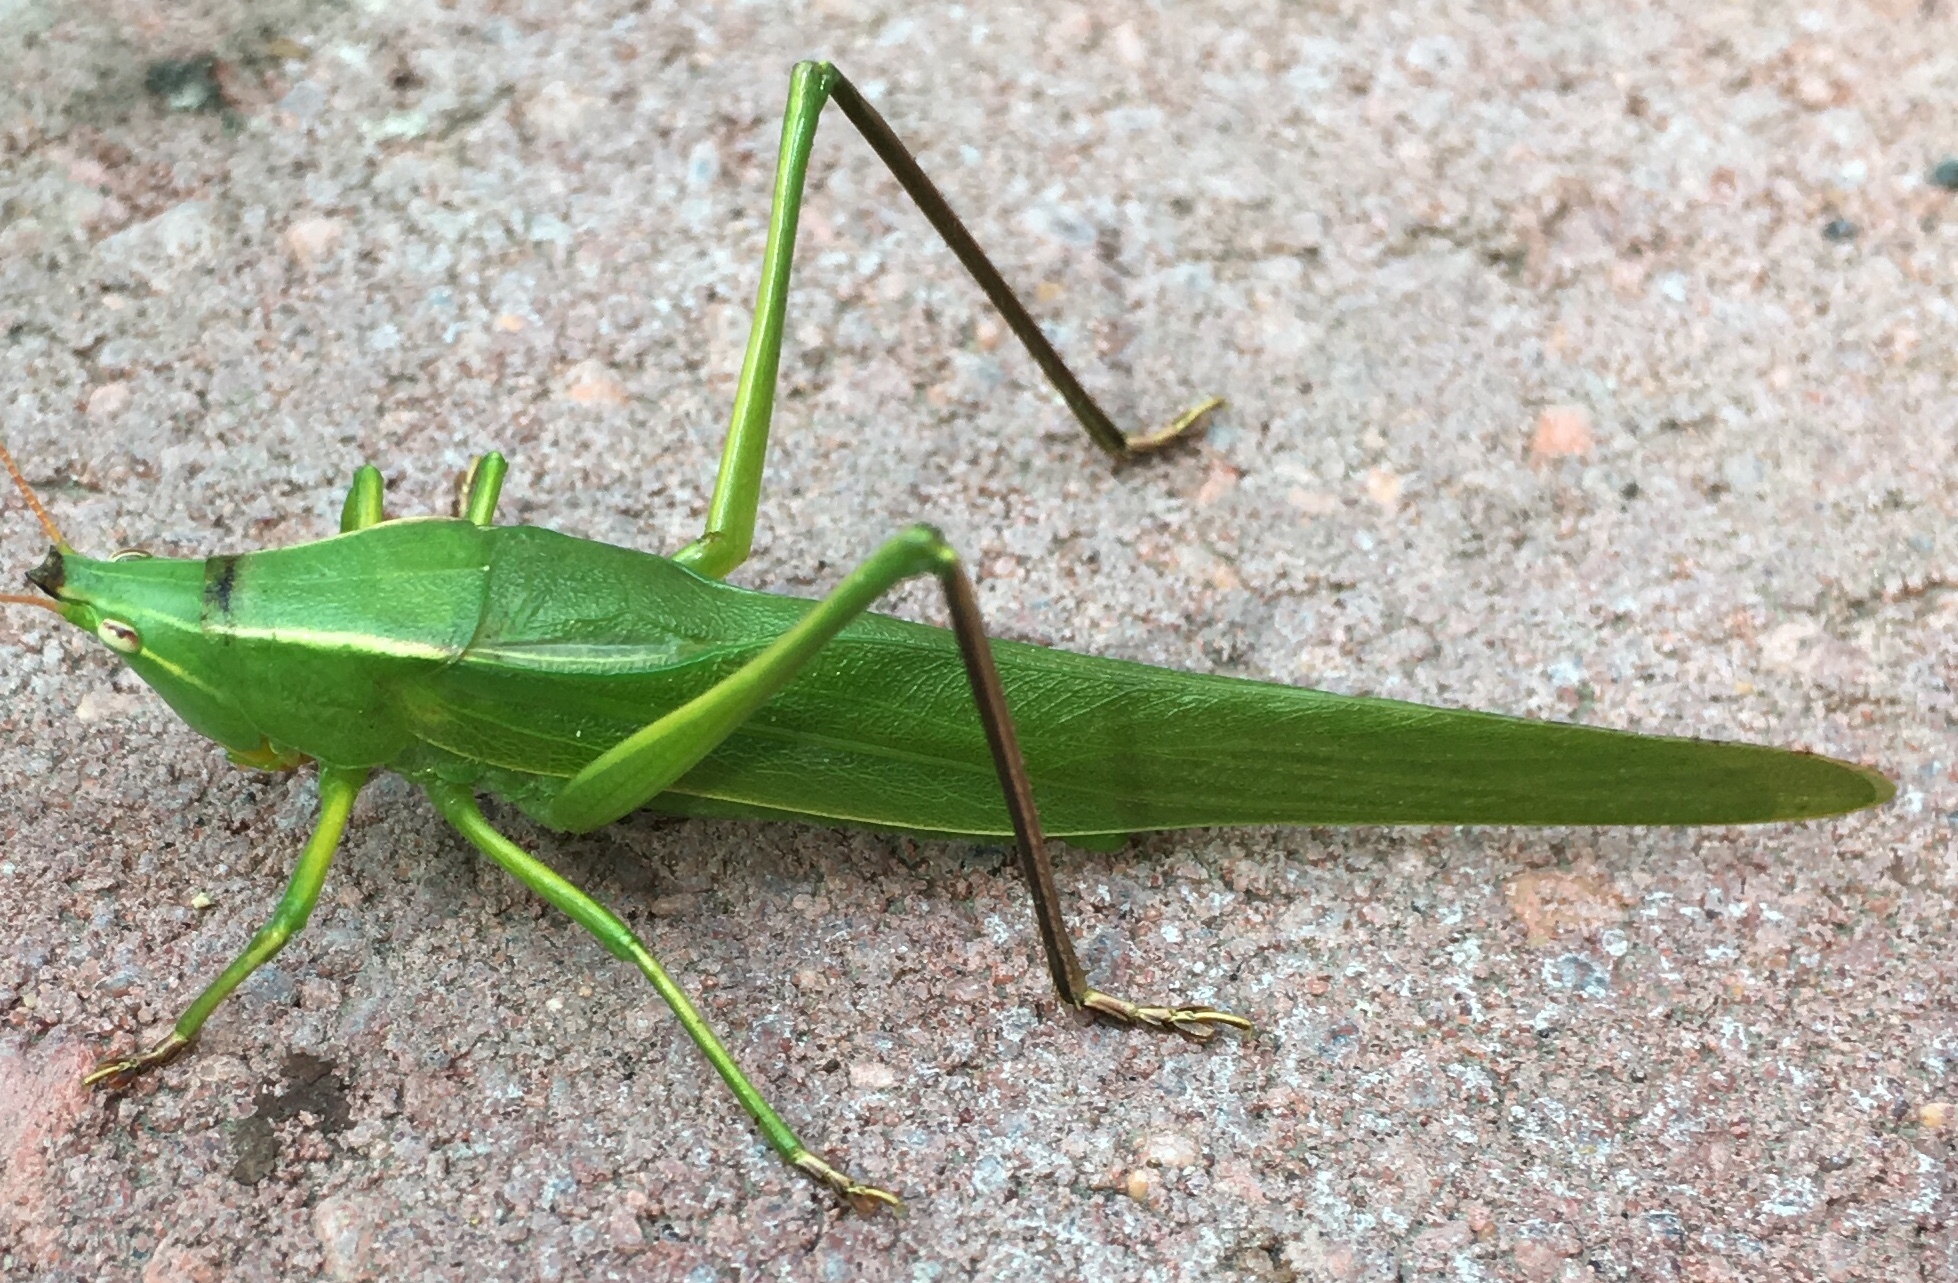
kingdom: Animalia
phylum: Arthropoda
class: Insecta
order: Orthoptera
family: Tettigoniidae
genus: Neoconocephalus
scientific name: Neoconocephalus ensiger
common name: Swordbearer
